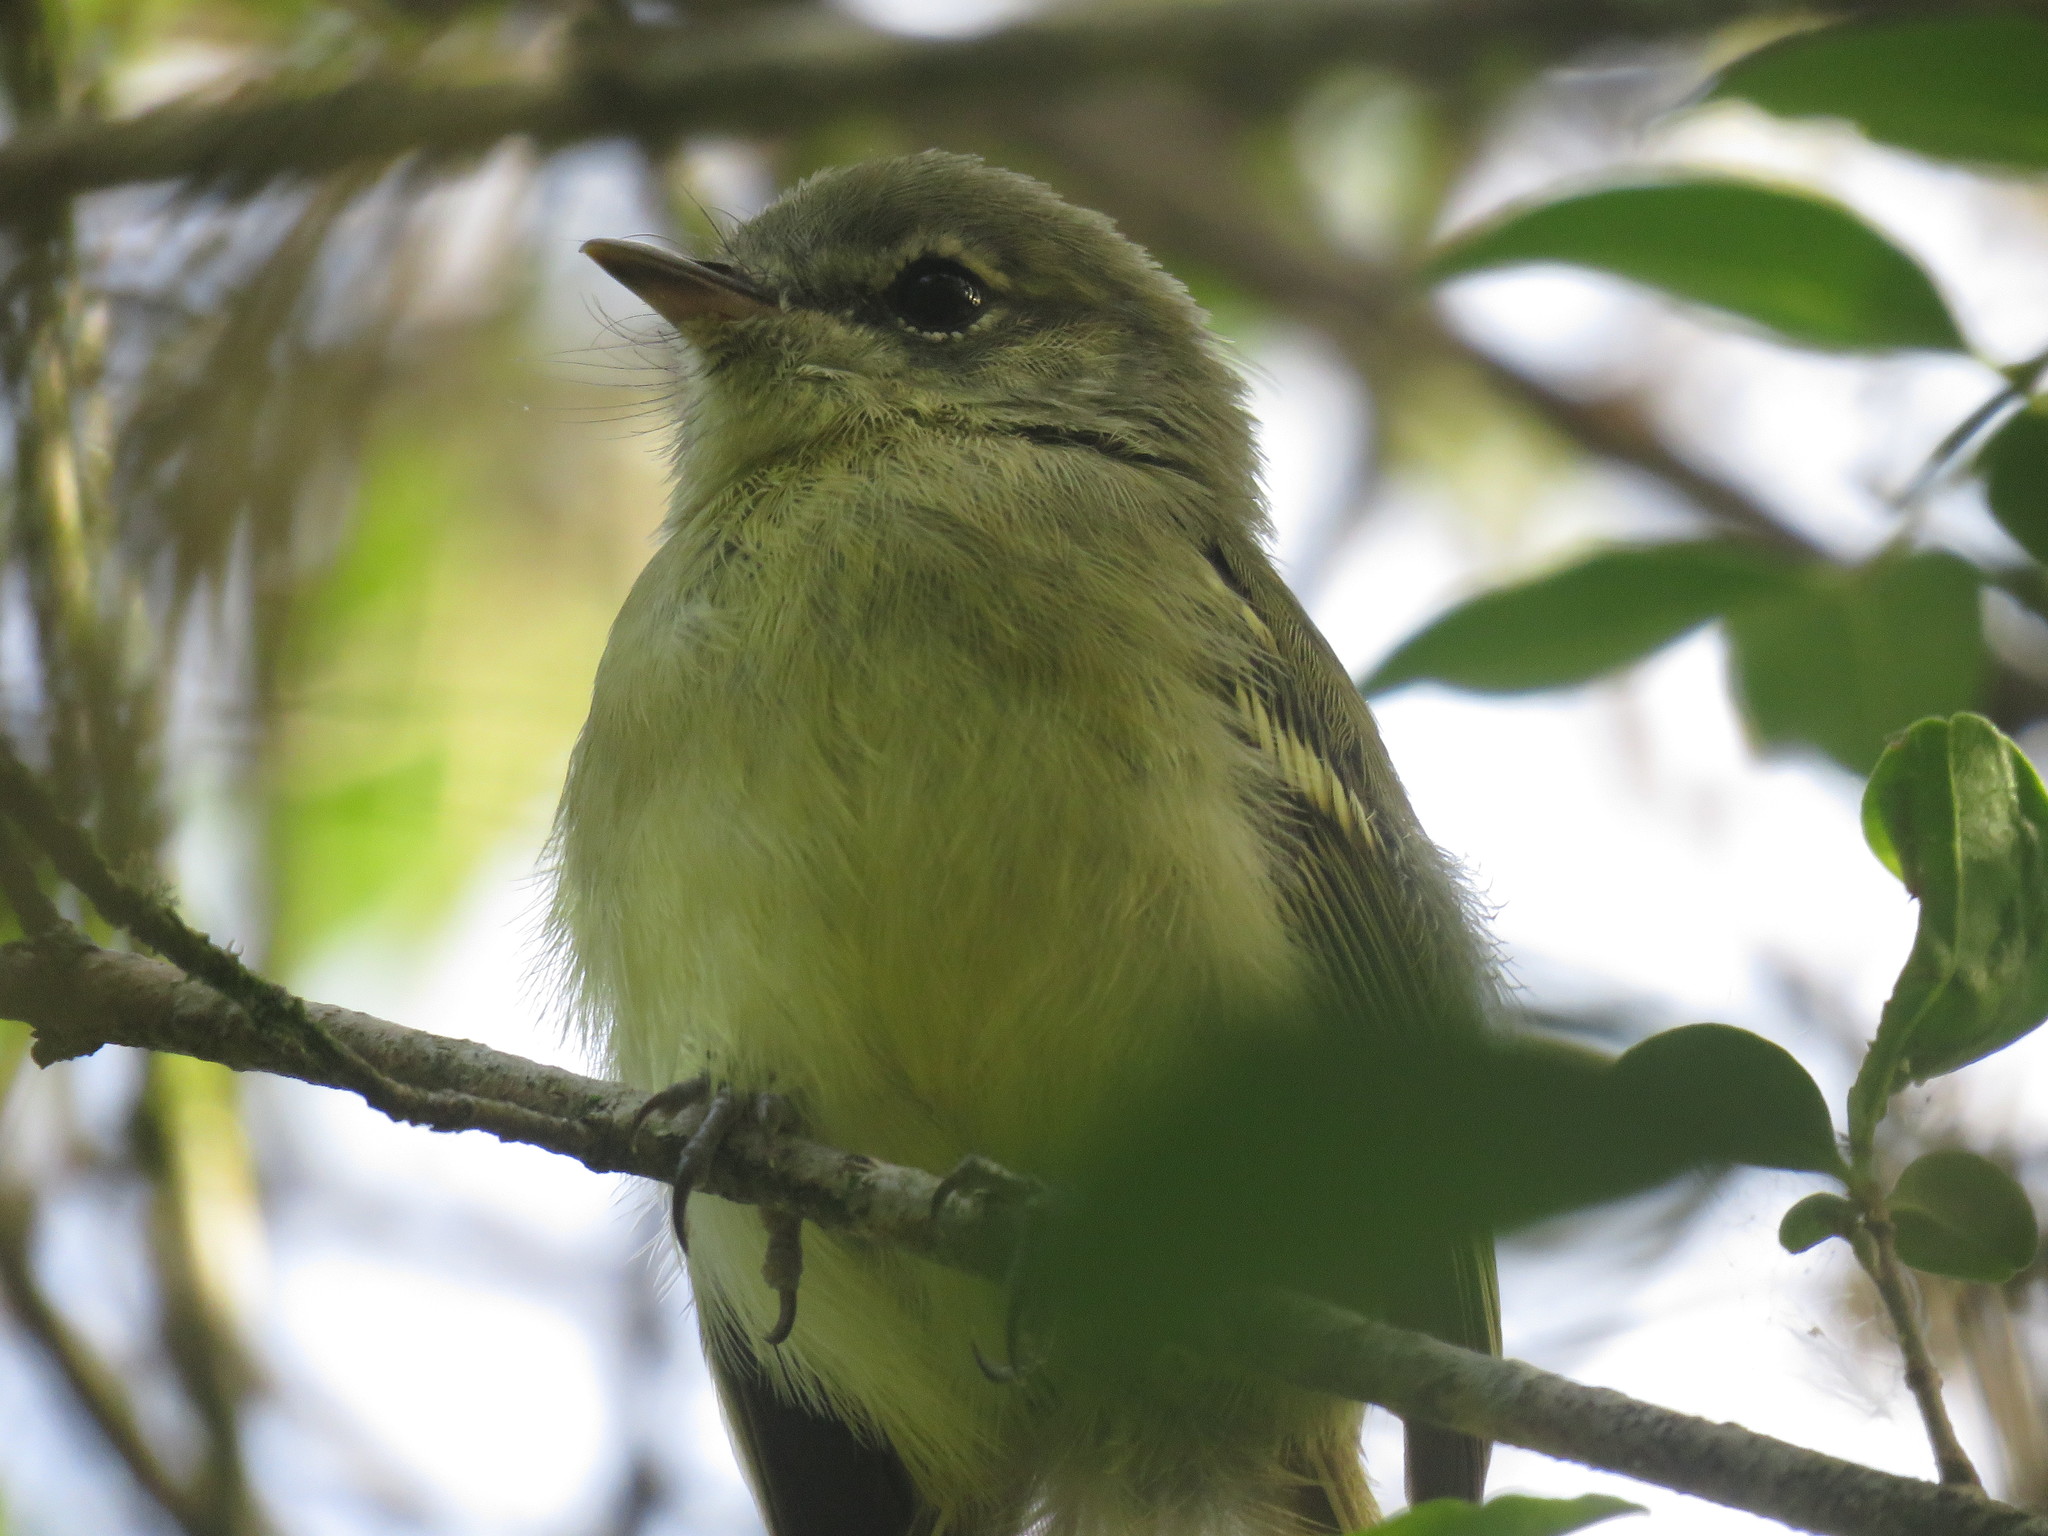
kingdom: Animalia
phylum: Chordata
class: Aves
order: Passeriformes
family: Tyrannidae
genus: Phylloscartes
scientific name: Phylloscartes ventralis
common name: Mottle-cheeked tyrannulet
